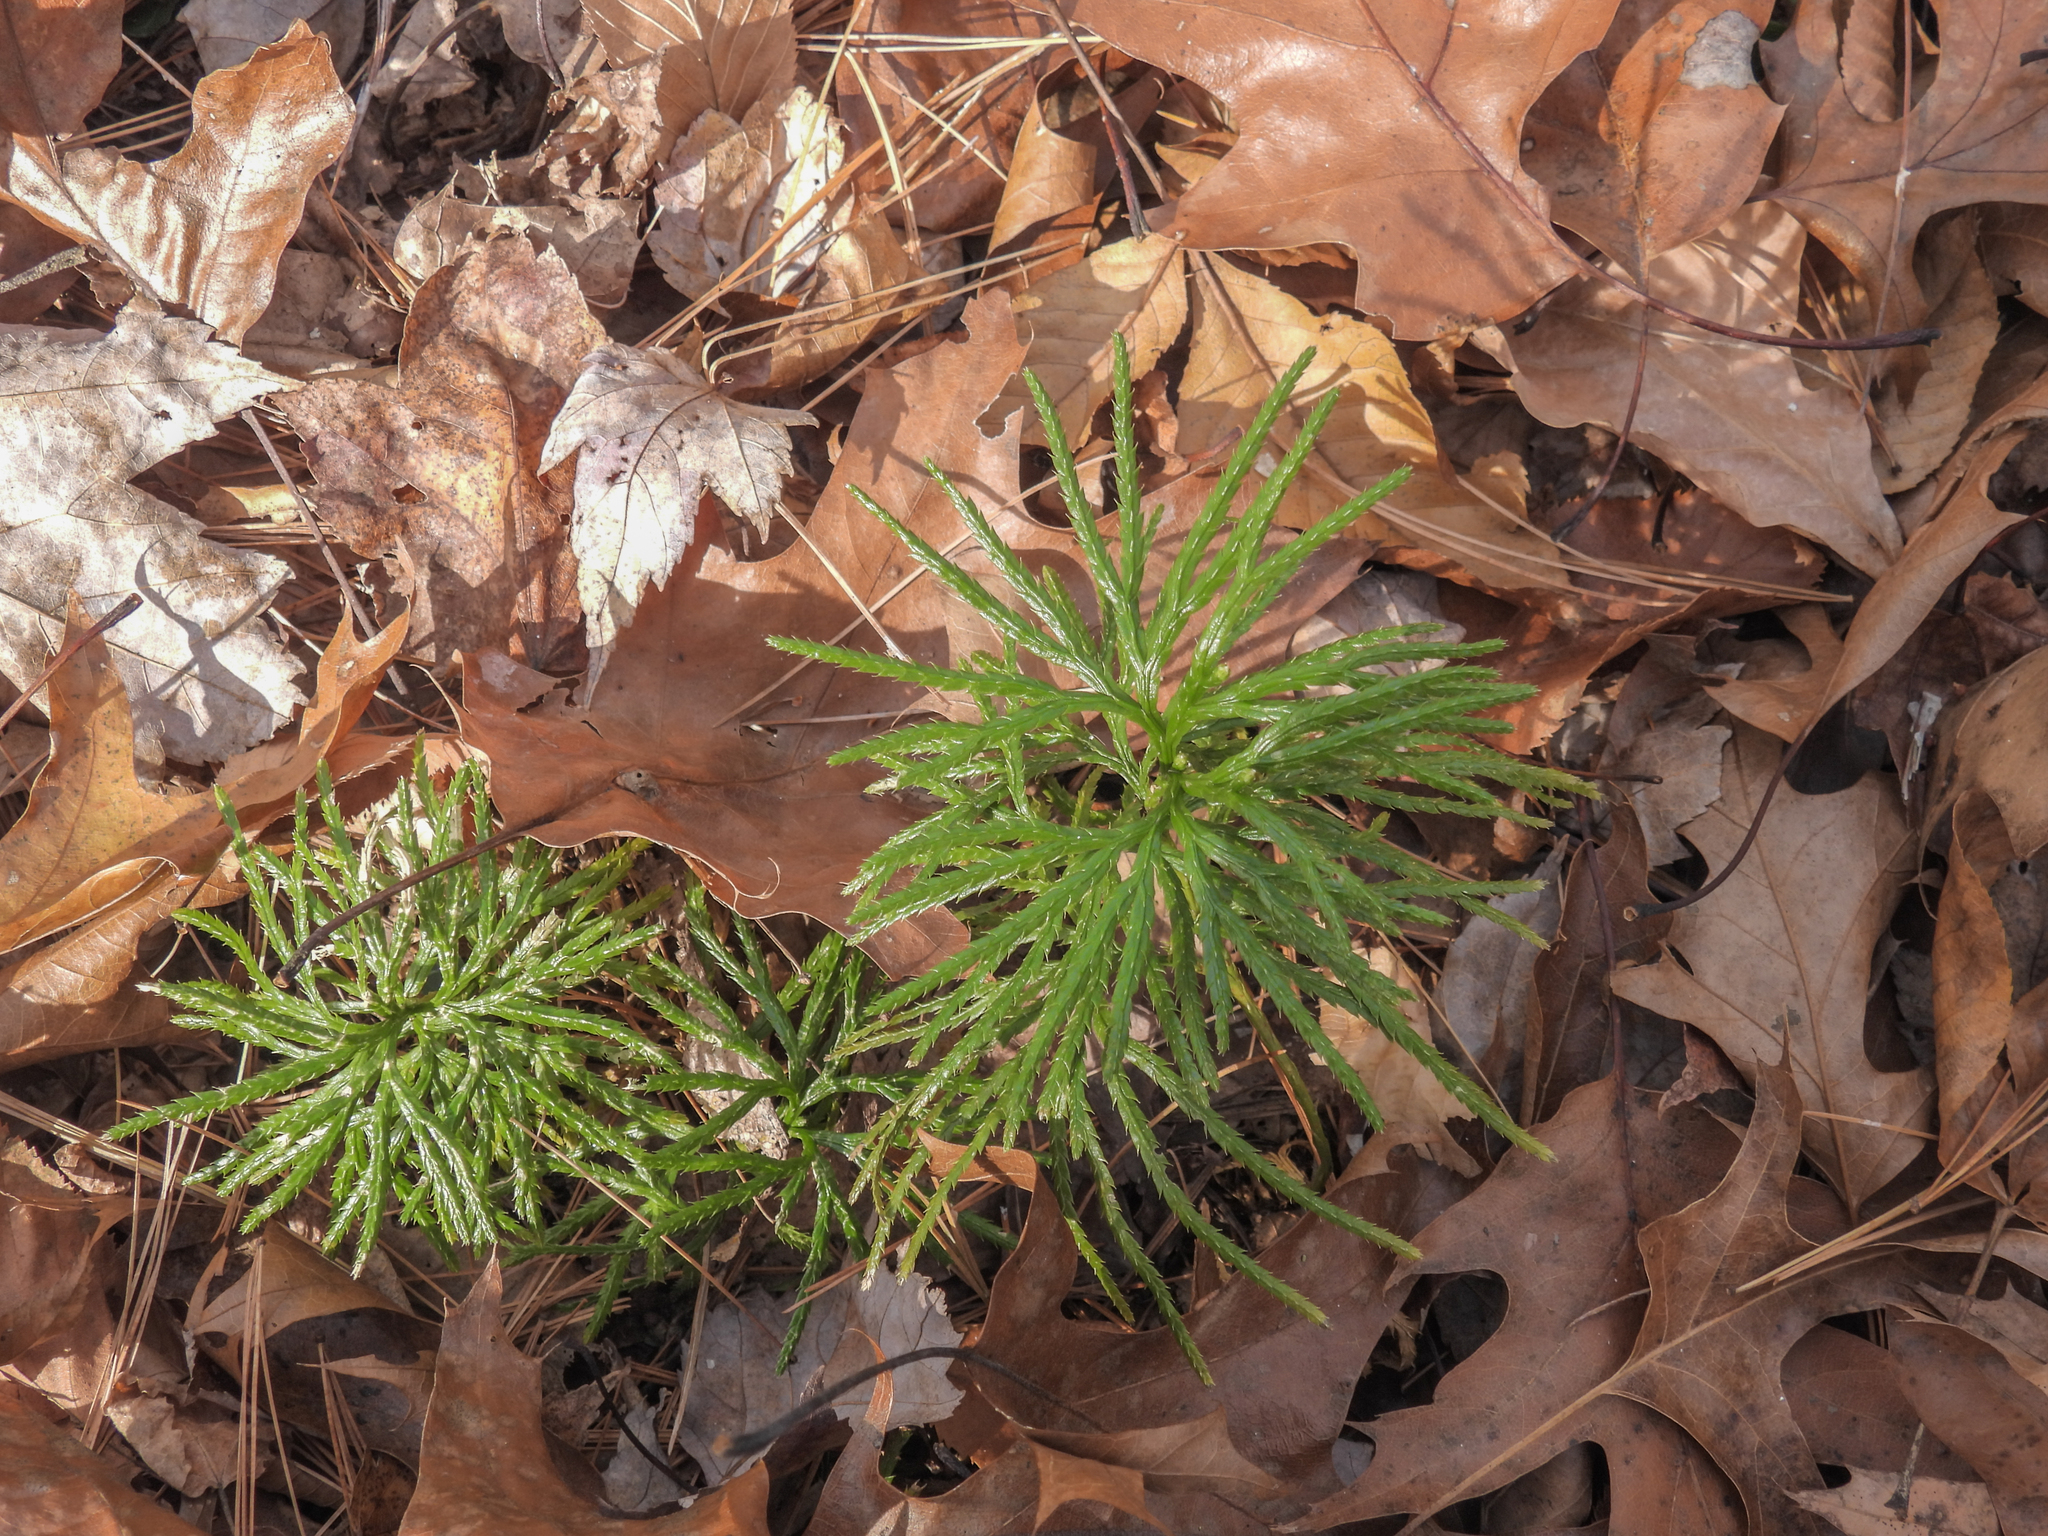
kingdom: Plantae
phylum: Tracheophyta
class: Lycopodiopsida
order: Lycopodiales
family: Lycopodiaceae
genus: Diphasiastrum
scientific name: Diphasiastrum digitatum
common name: Southern running-pine
